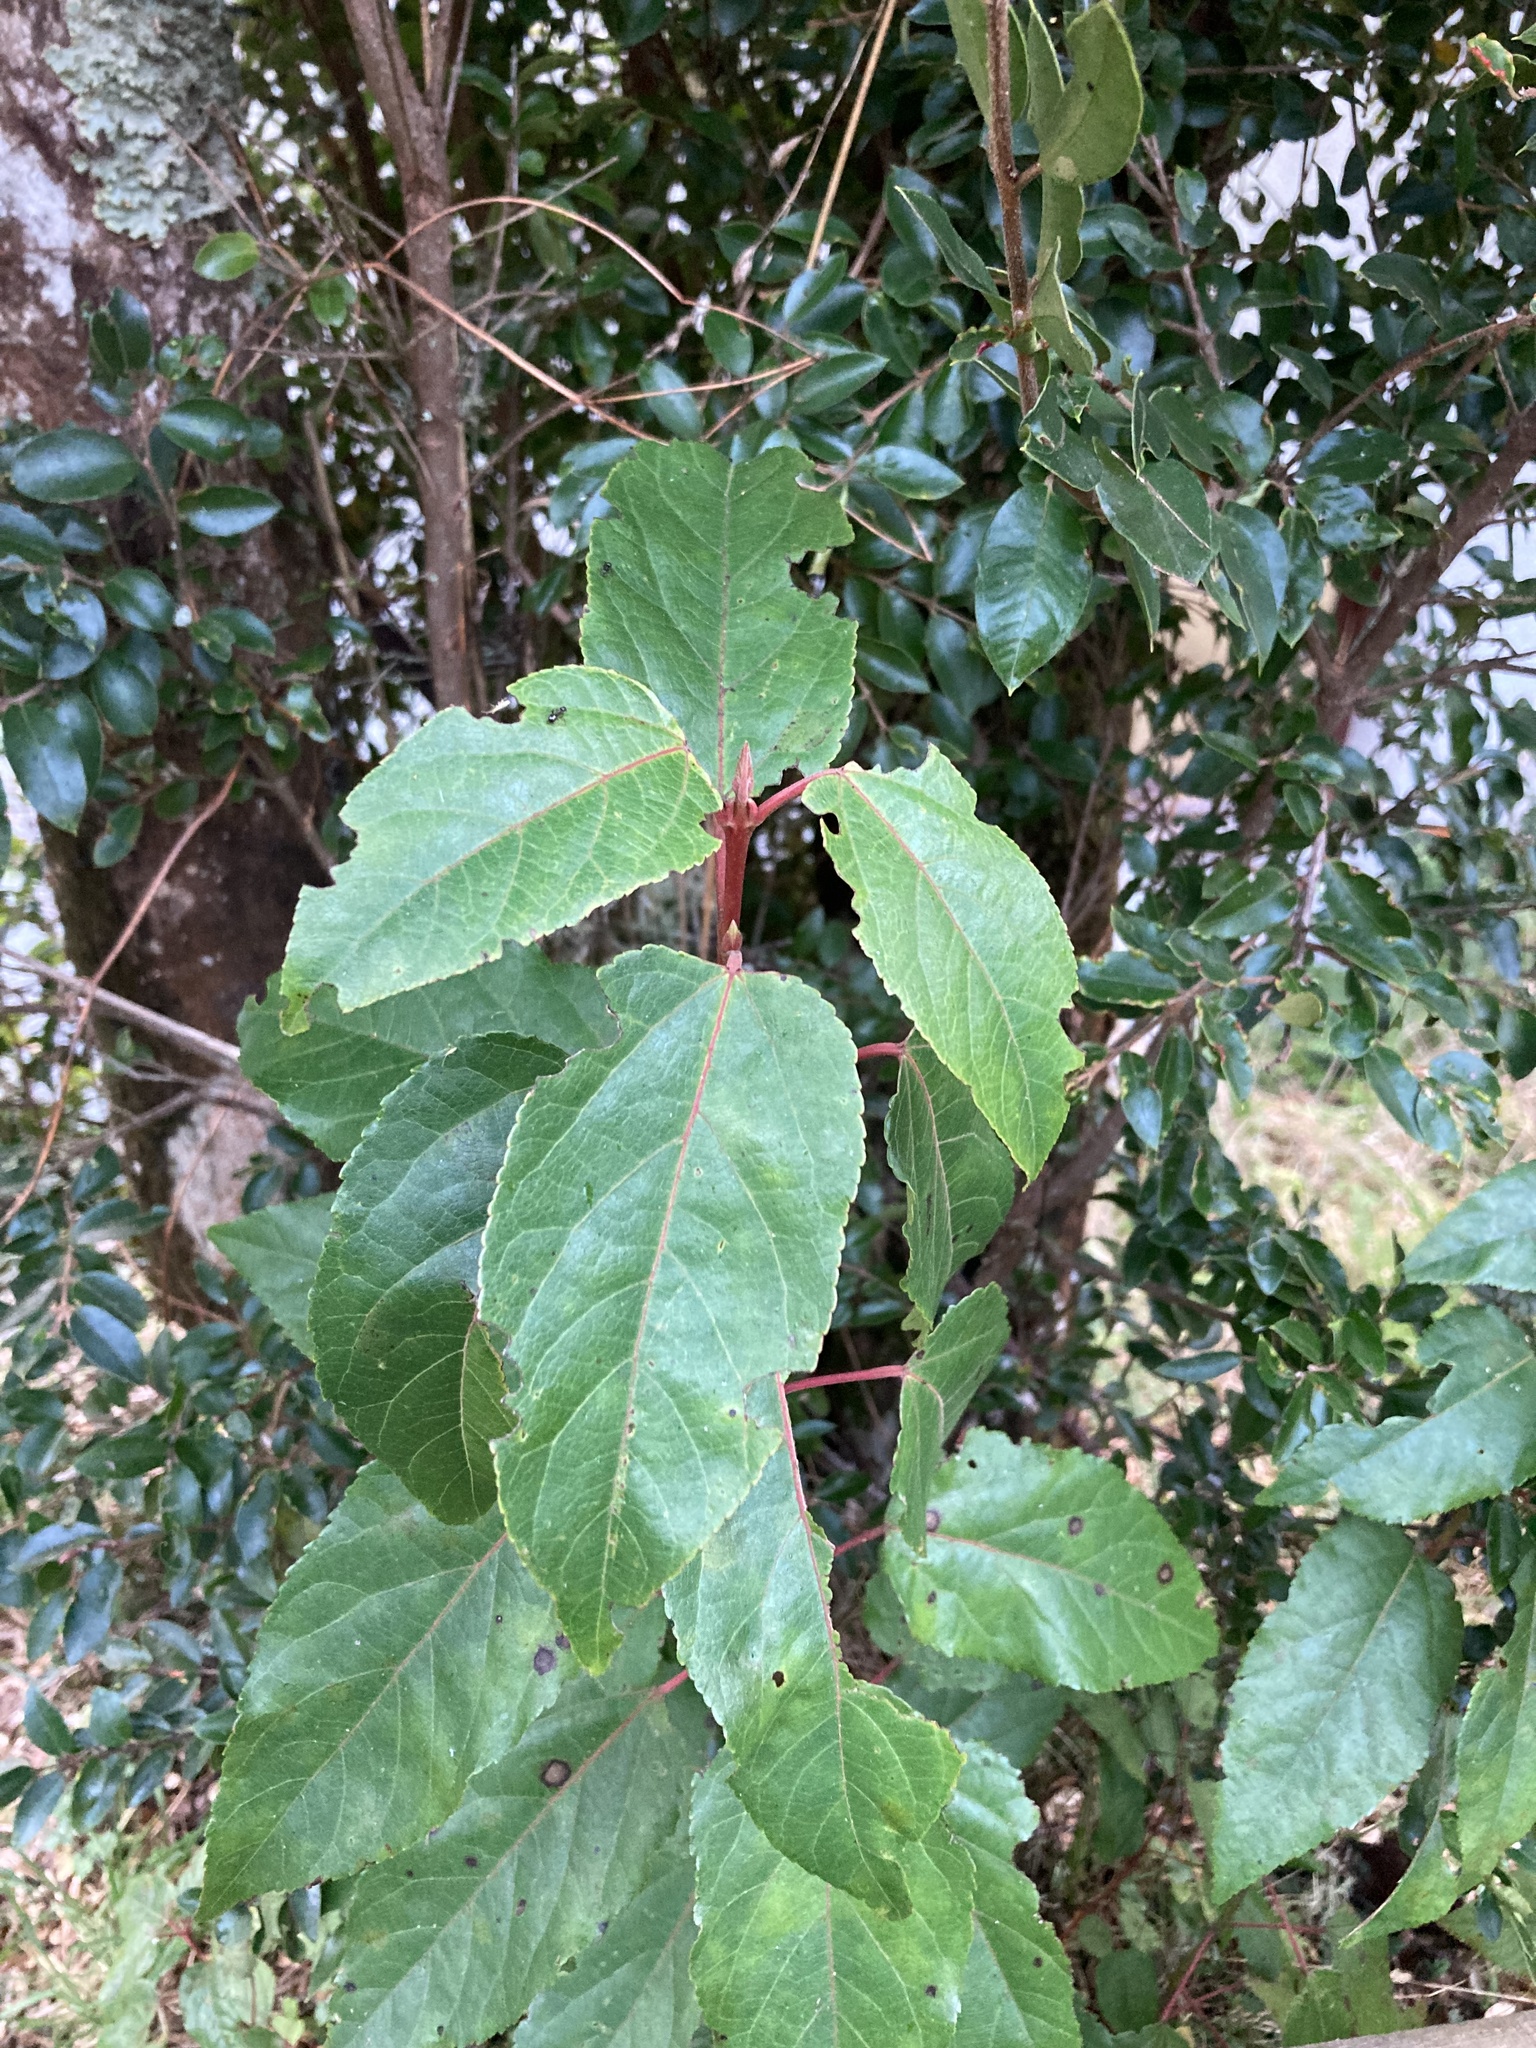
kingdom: Plantae
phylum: Tracheophyta
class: Magnoliopsida
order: Oxalidales
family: Elaeocarpaceae
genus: Aristotelia
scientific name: Aristotelia chilensis
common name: Maquei
